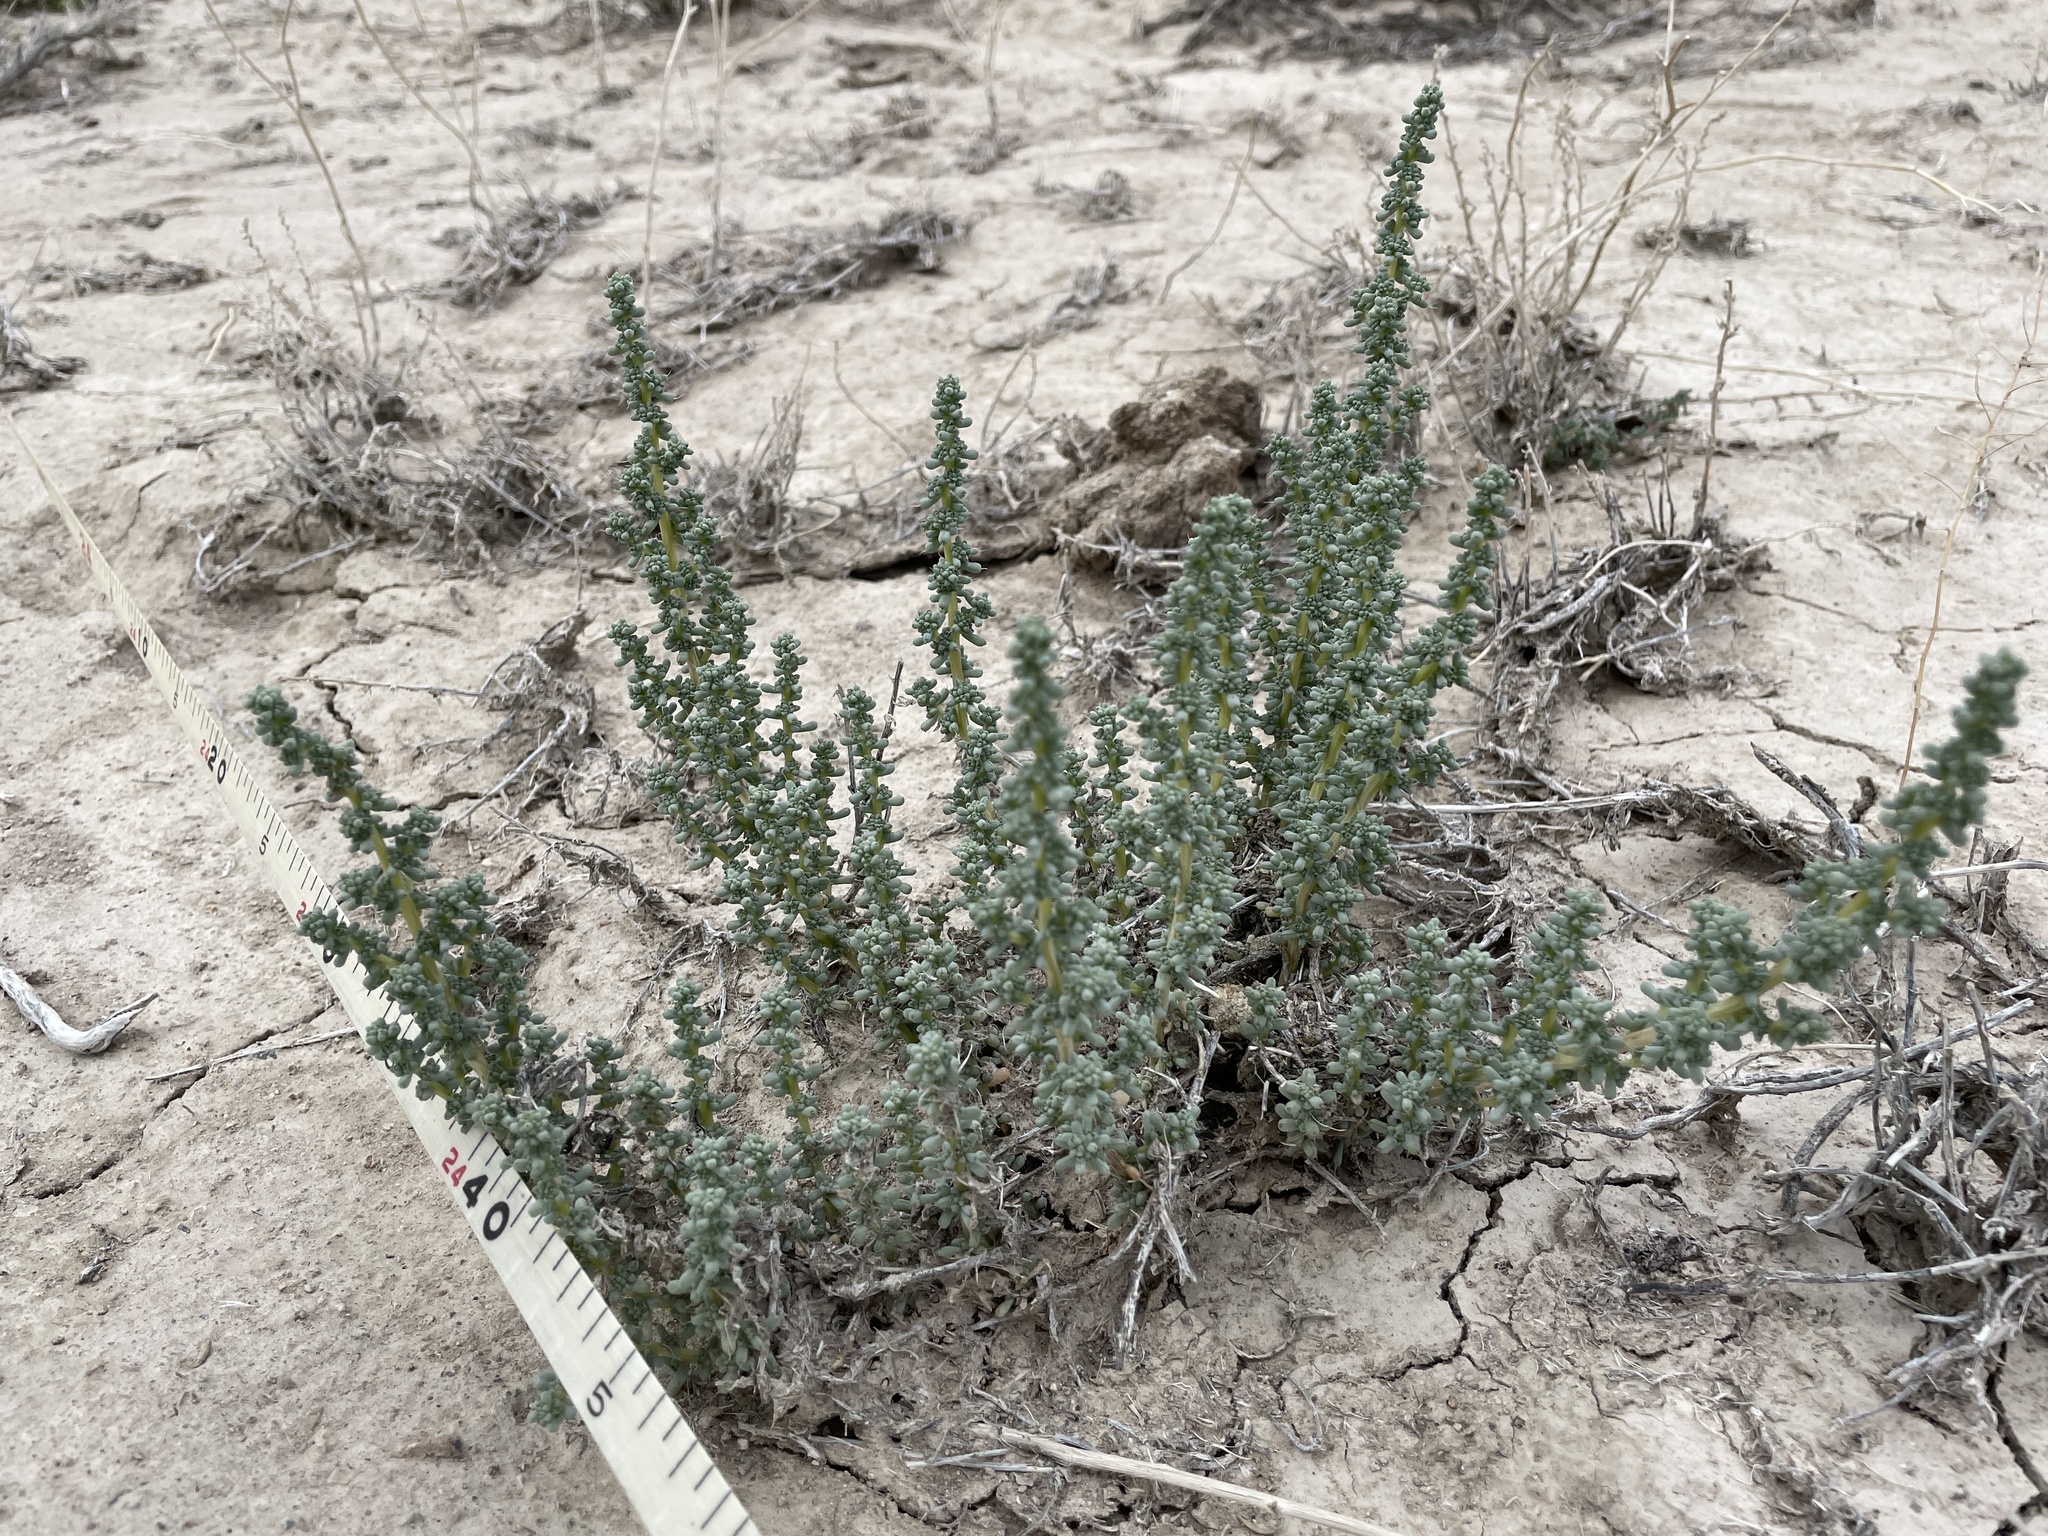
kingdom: Plantae
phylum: Tracheophyta
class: Magnoliopsida
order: Caryophyllales
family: Amaranthaceae
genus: Halogeton
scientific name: Halogeton glomeratus
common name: Saltlover
